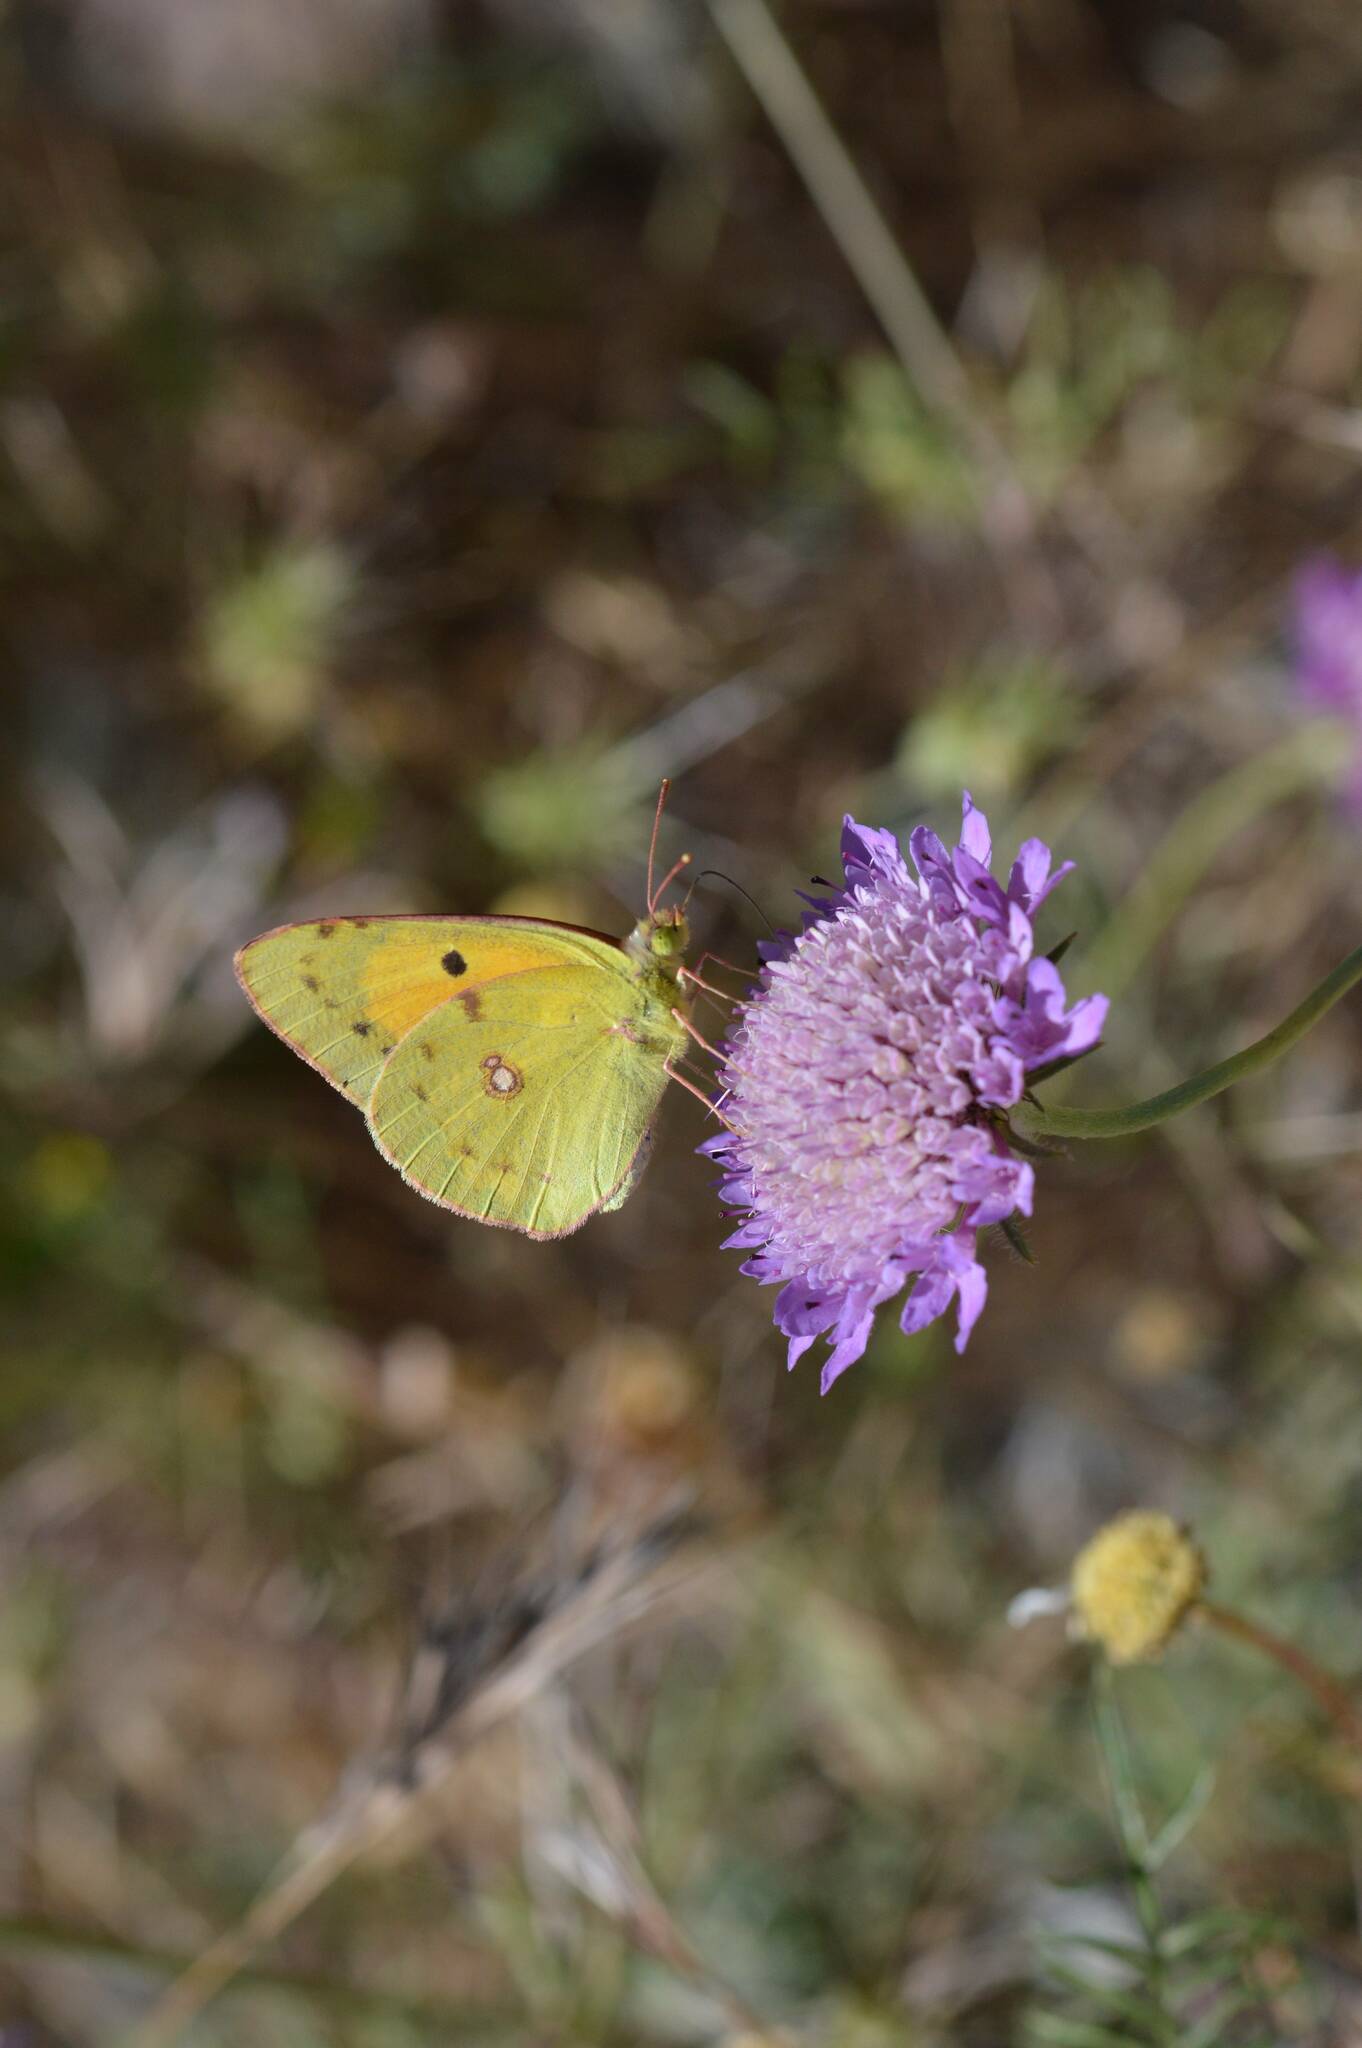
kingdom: Animalia
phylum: Arthropoda
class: Insecta
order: Lepidoptera
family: Pieridae
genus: Colias
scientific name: Colias croceus
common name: Clouded yellow
